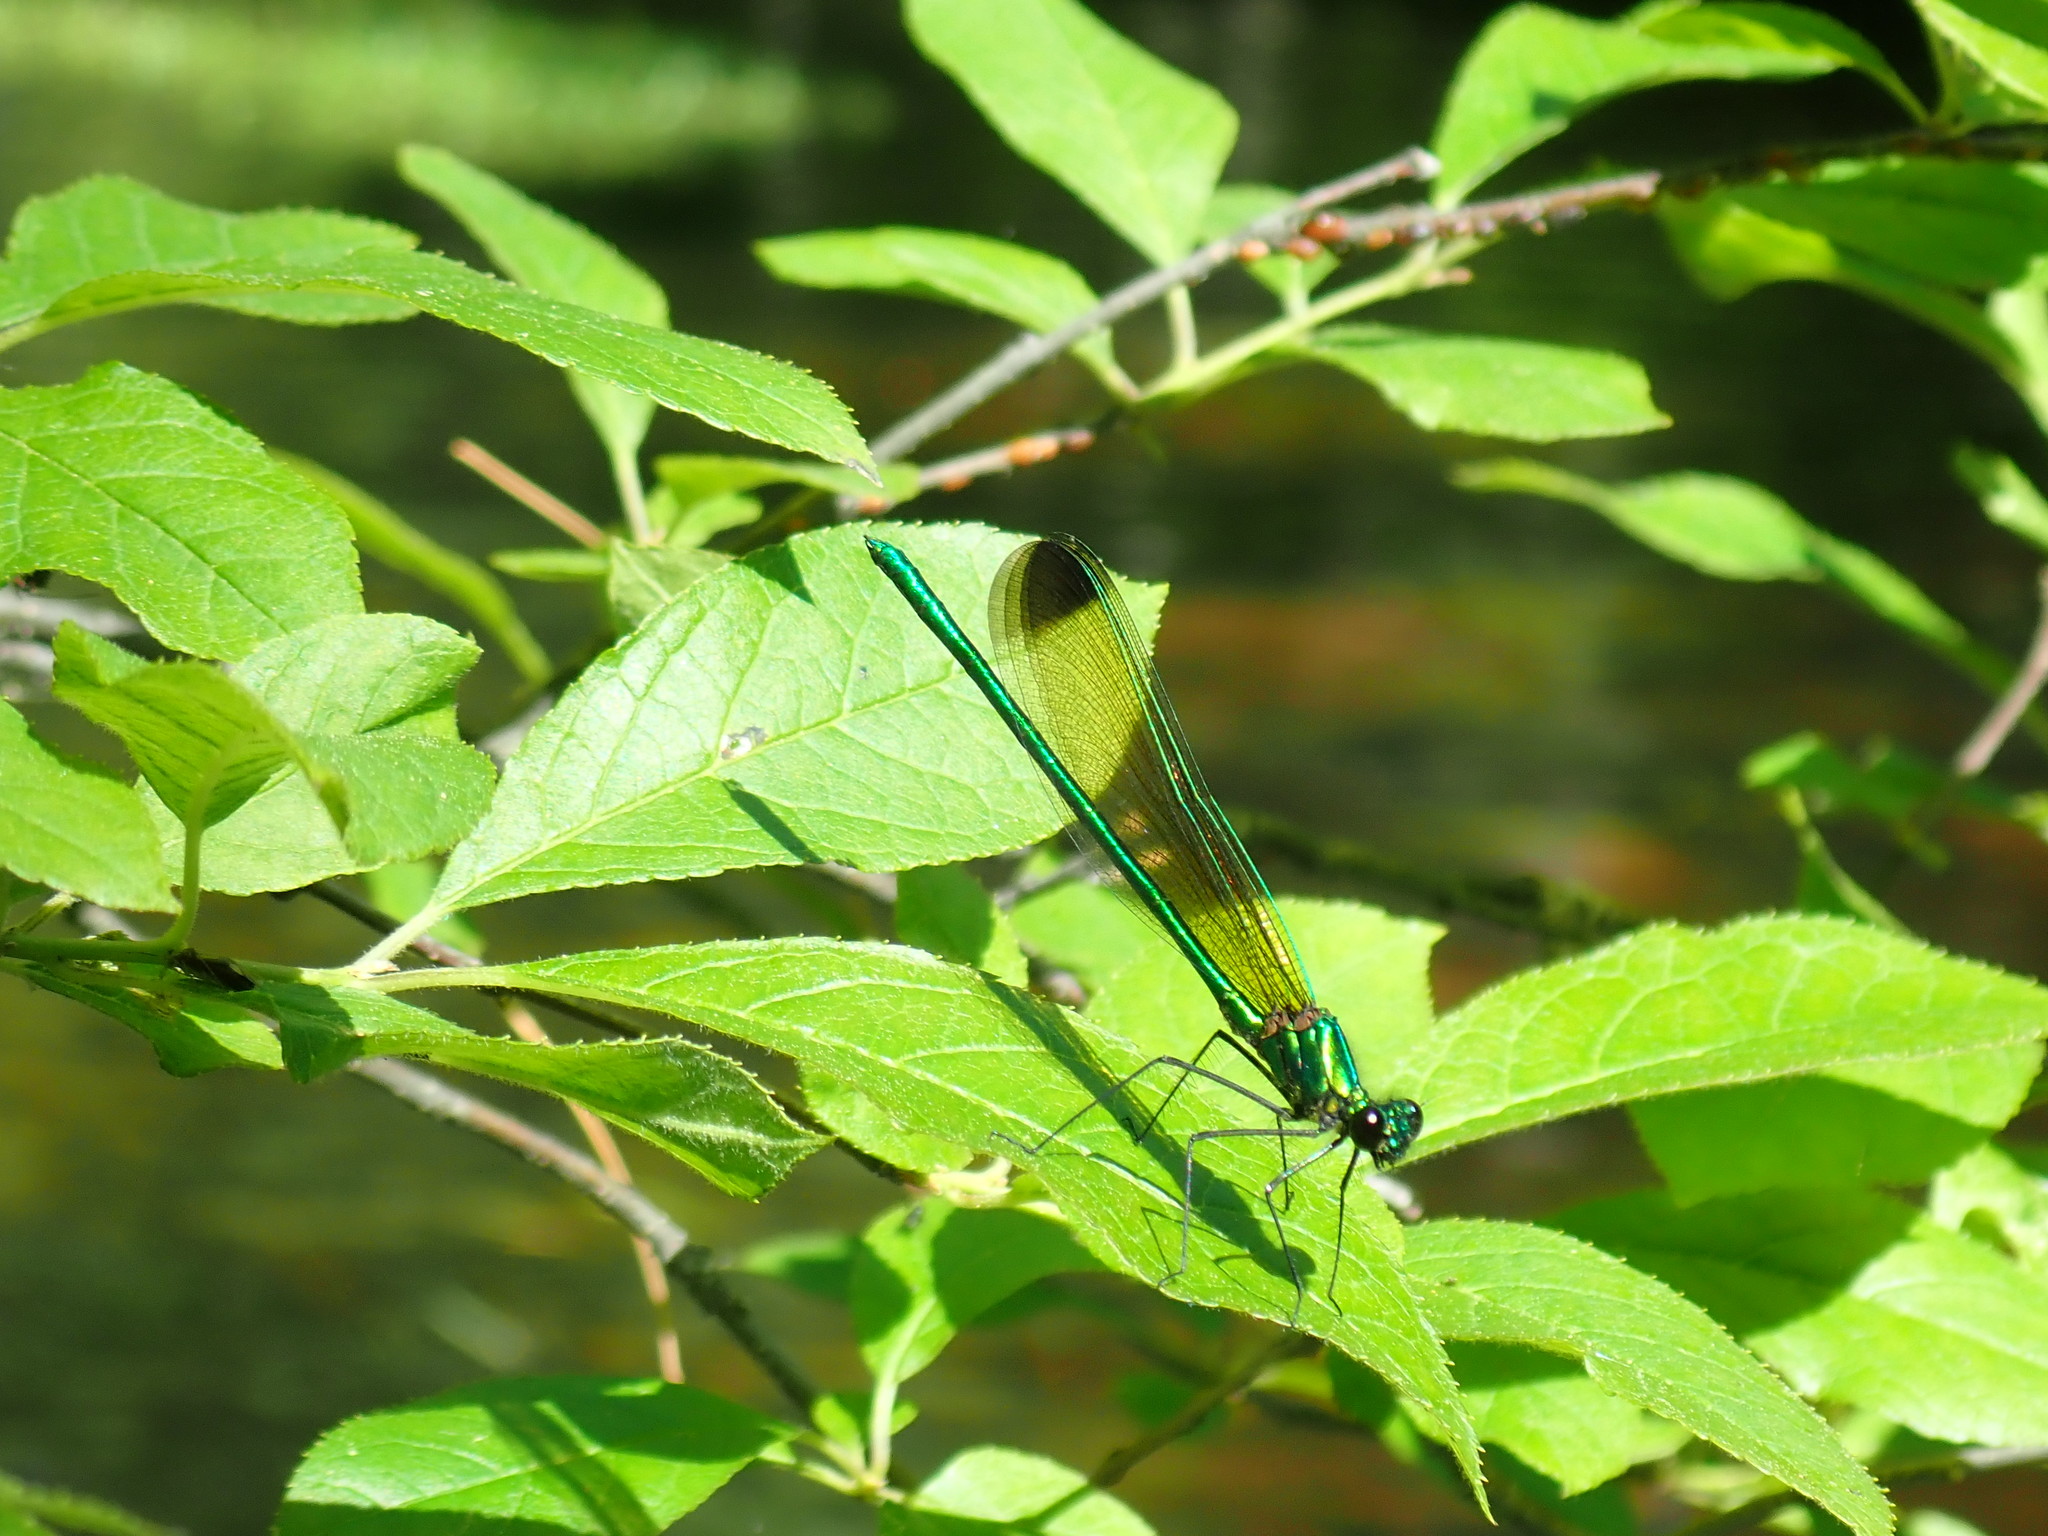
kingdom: Animalia
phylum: Arthropoda
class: Insecta
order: Odonata
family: Calopterygidae
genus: Calopteryx
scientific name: Calopteryx dimidiata
